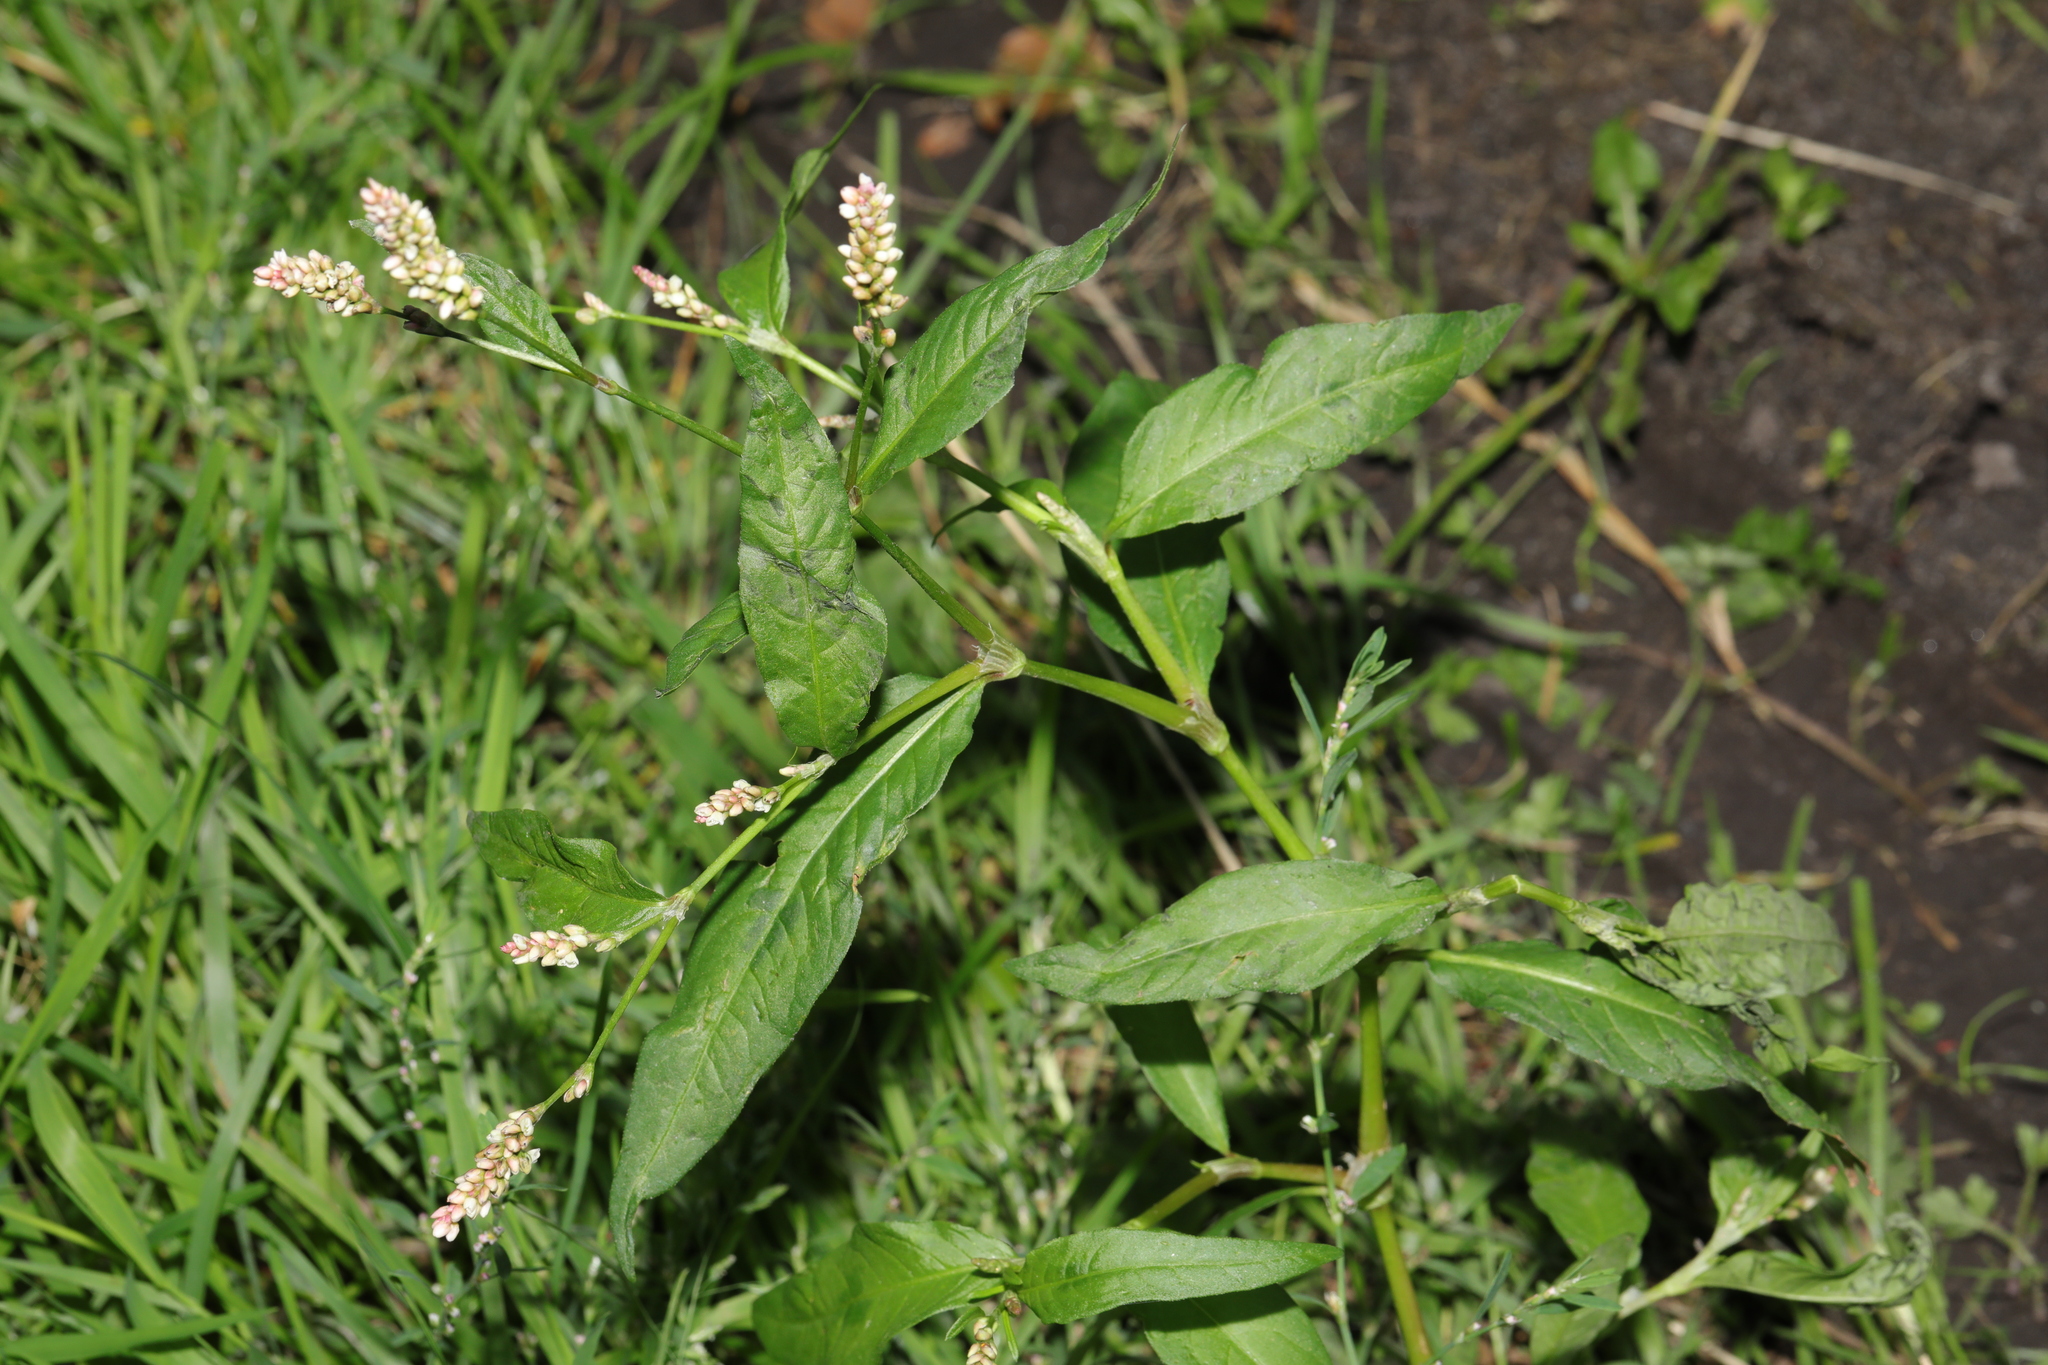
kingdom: Plantae
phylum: Tracheophyta
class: Magnoliopsida
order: Caryophyllales
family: Polygonaceae
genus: Persicaria
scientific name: Persicaria maculosa
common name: Redshank
